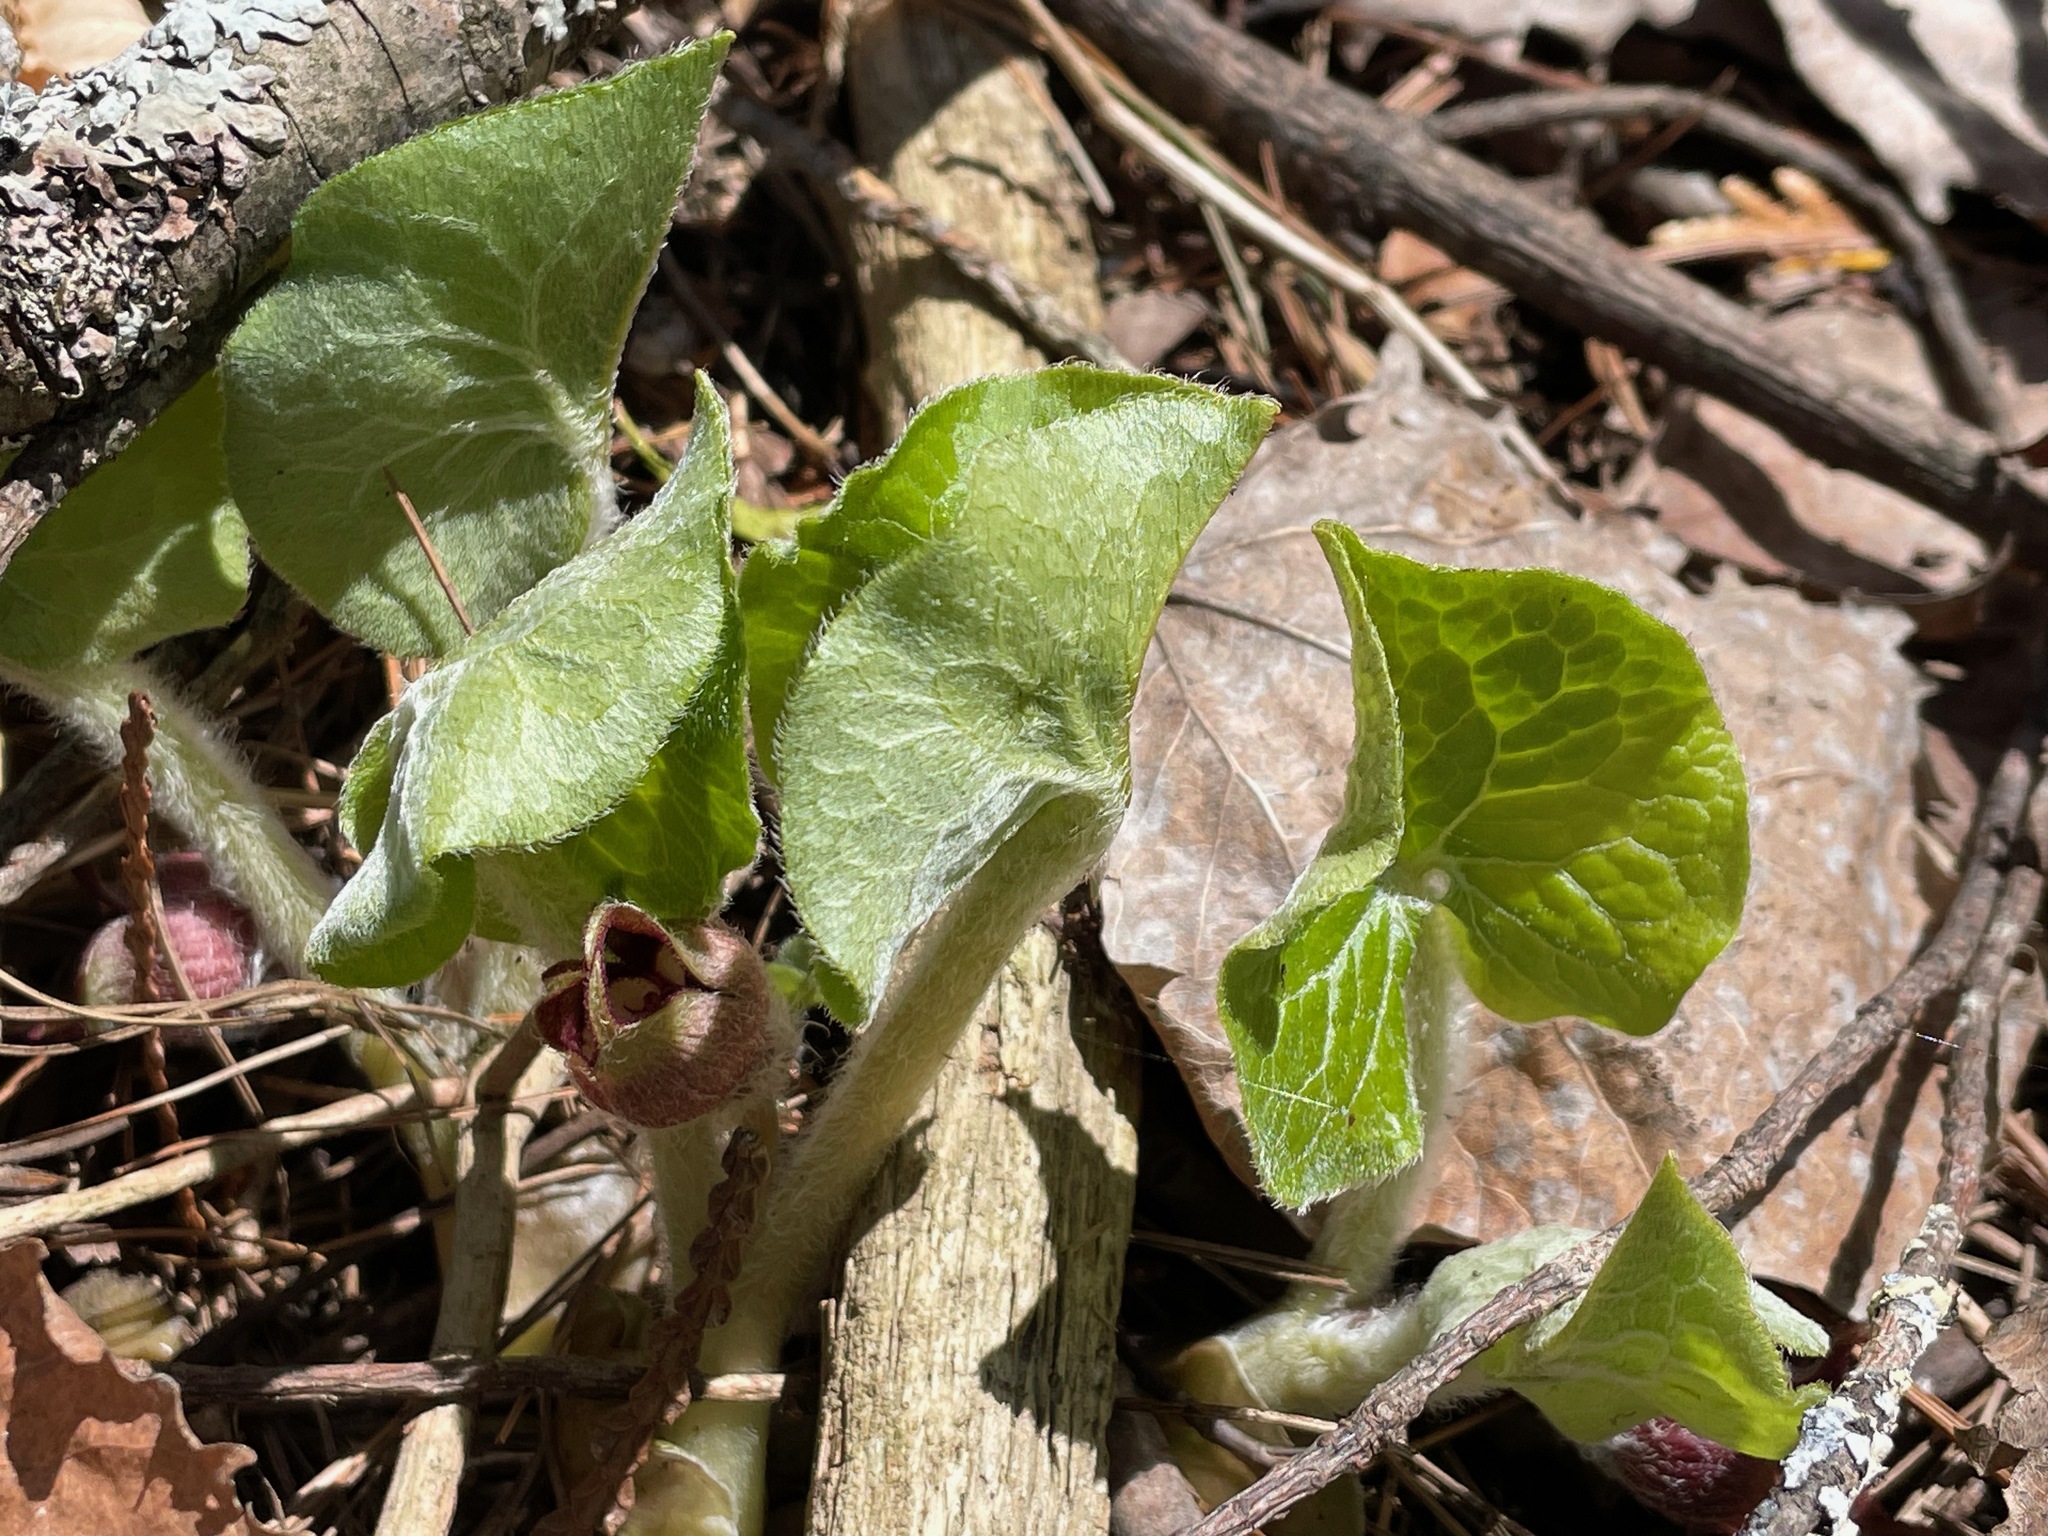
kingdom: Plantae
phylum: Tracheophyta
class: Magnoliopsida
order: Piperales
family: Aristolochiaceae
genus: Asarum
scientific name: Asarum canadense
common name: Wild ginger
